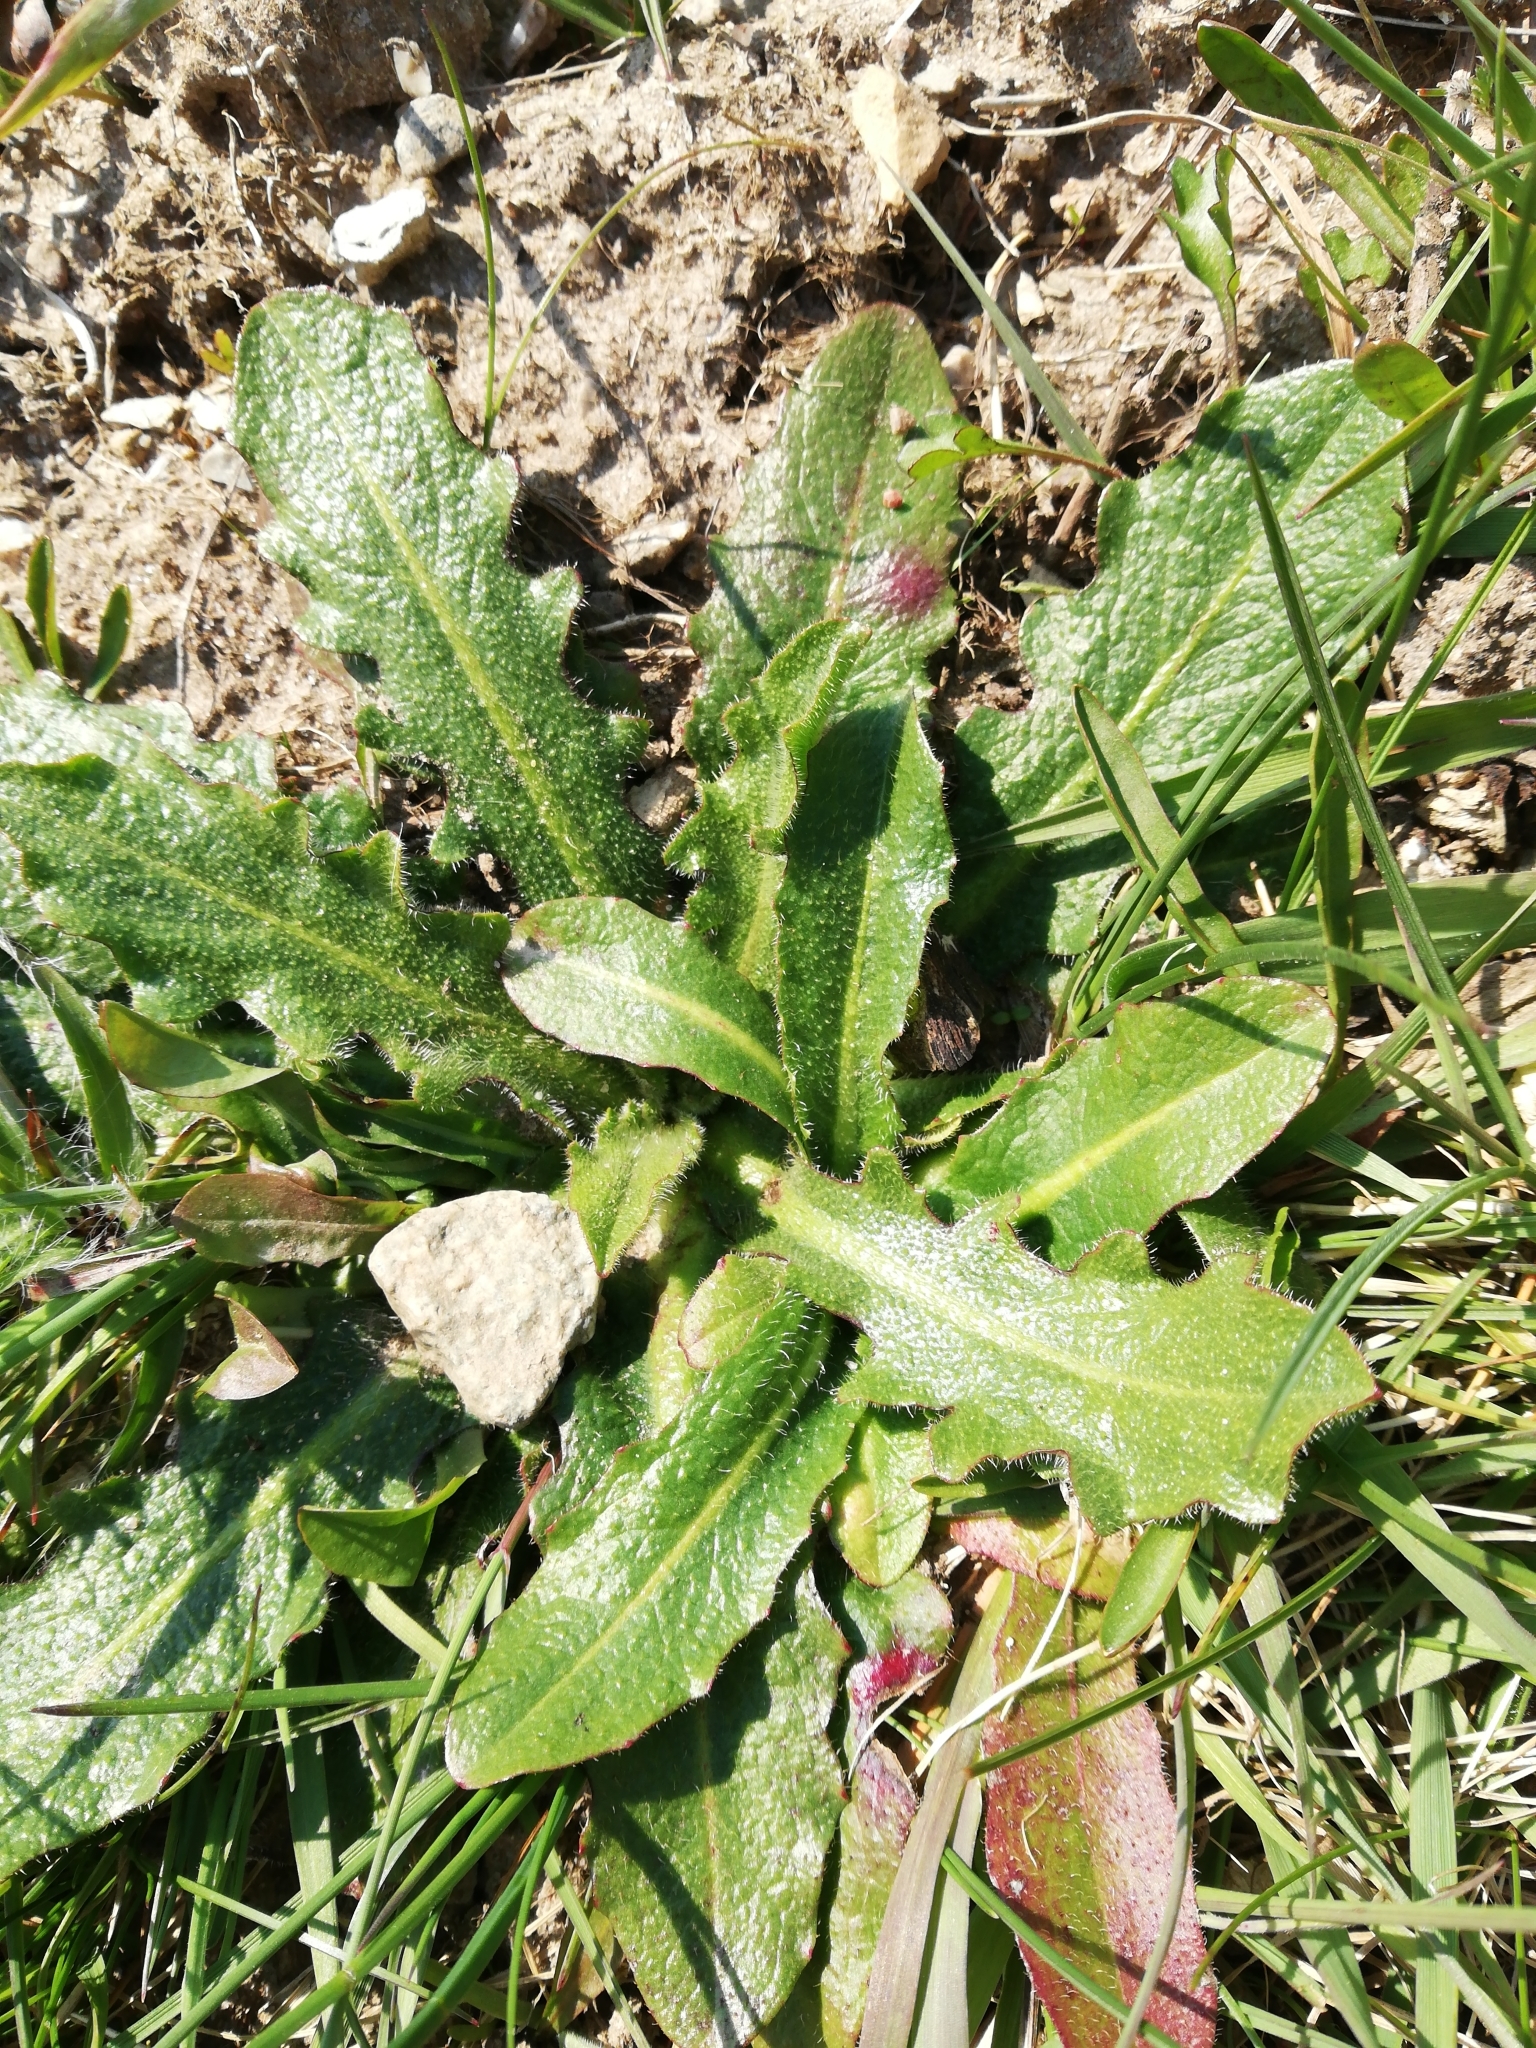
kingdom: Plantae
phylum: Tracheophyta
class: Magnoliopsida
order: Asterales
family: Asteraceae
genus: Hypochaeris
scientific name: Hypochaeris radicata
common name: Flatweed
